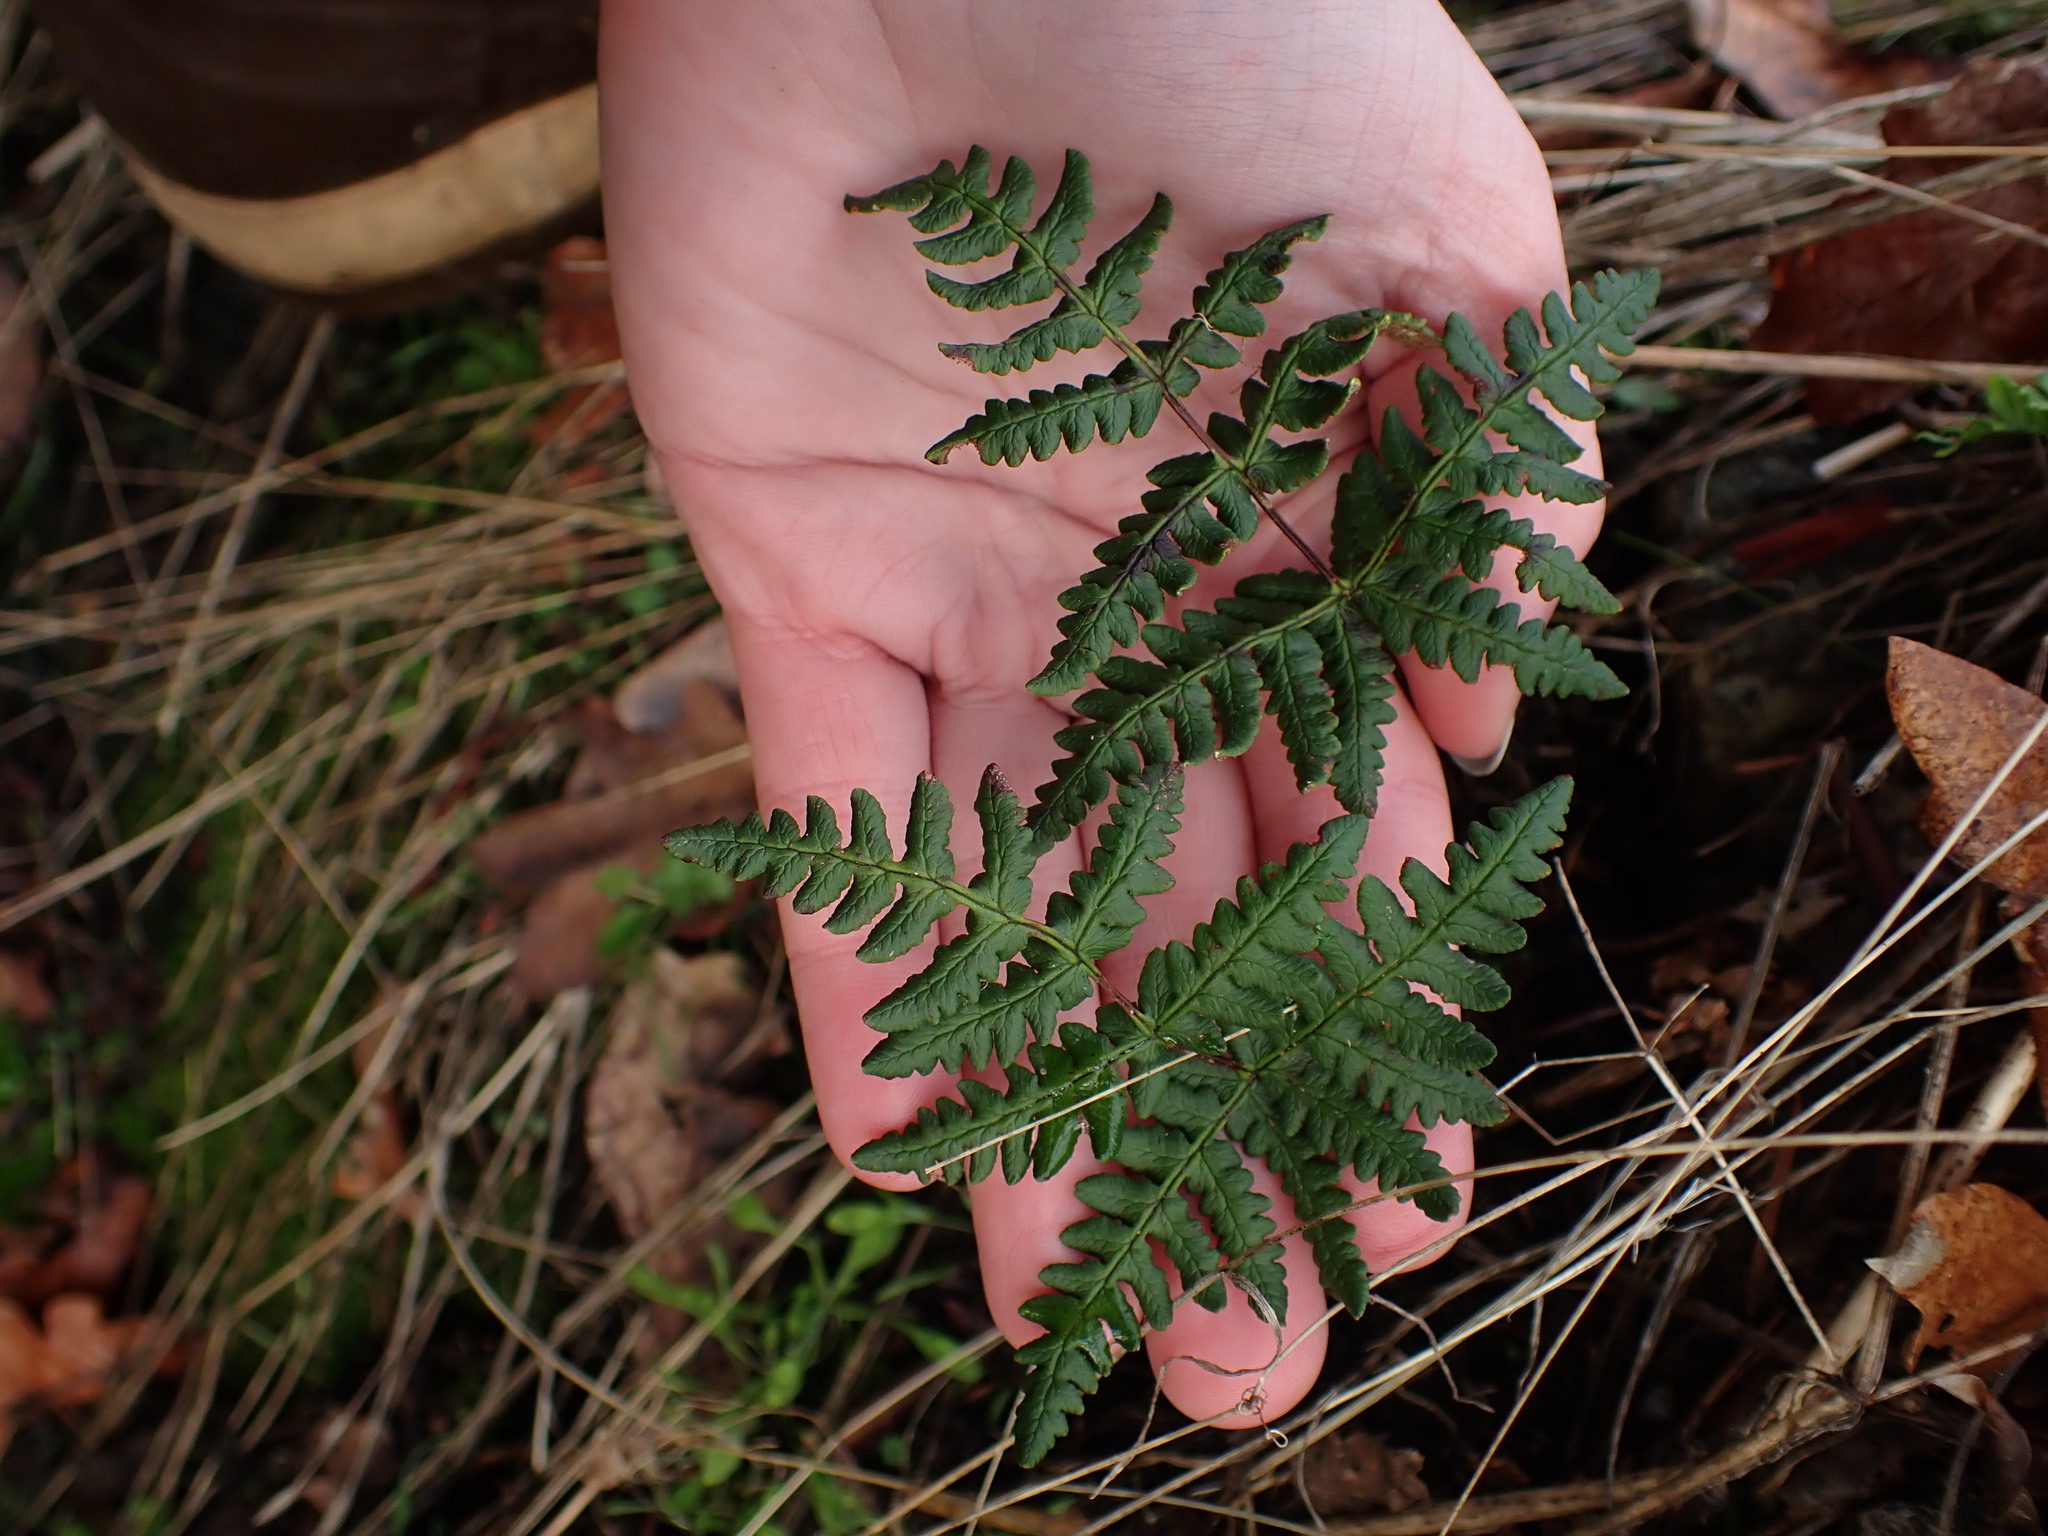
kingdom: Plantae
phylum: Tracheophyta
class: Polypodiopsida
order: Polypodiales
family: Pteridaceae
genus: Pentagramma
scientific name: Pentagramma triangularis
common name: Gold fern
